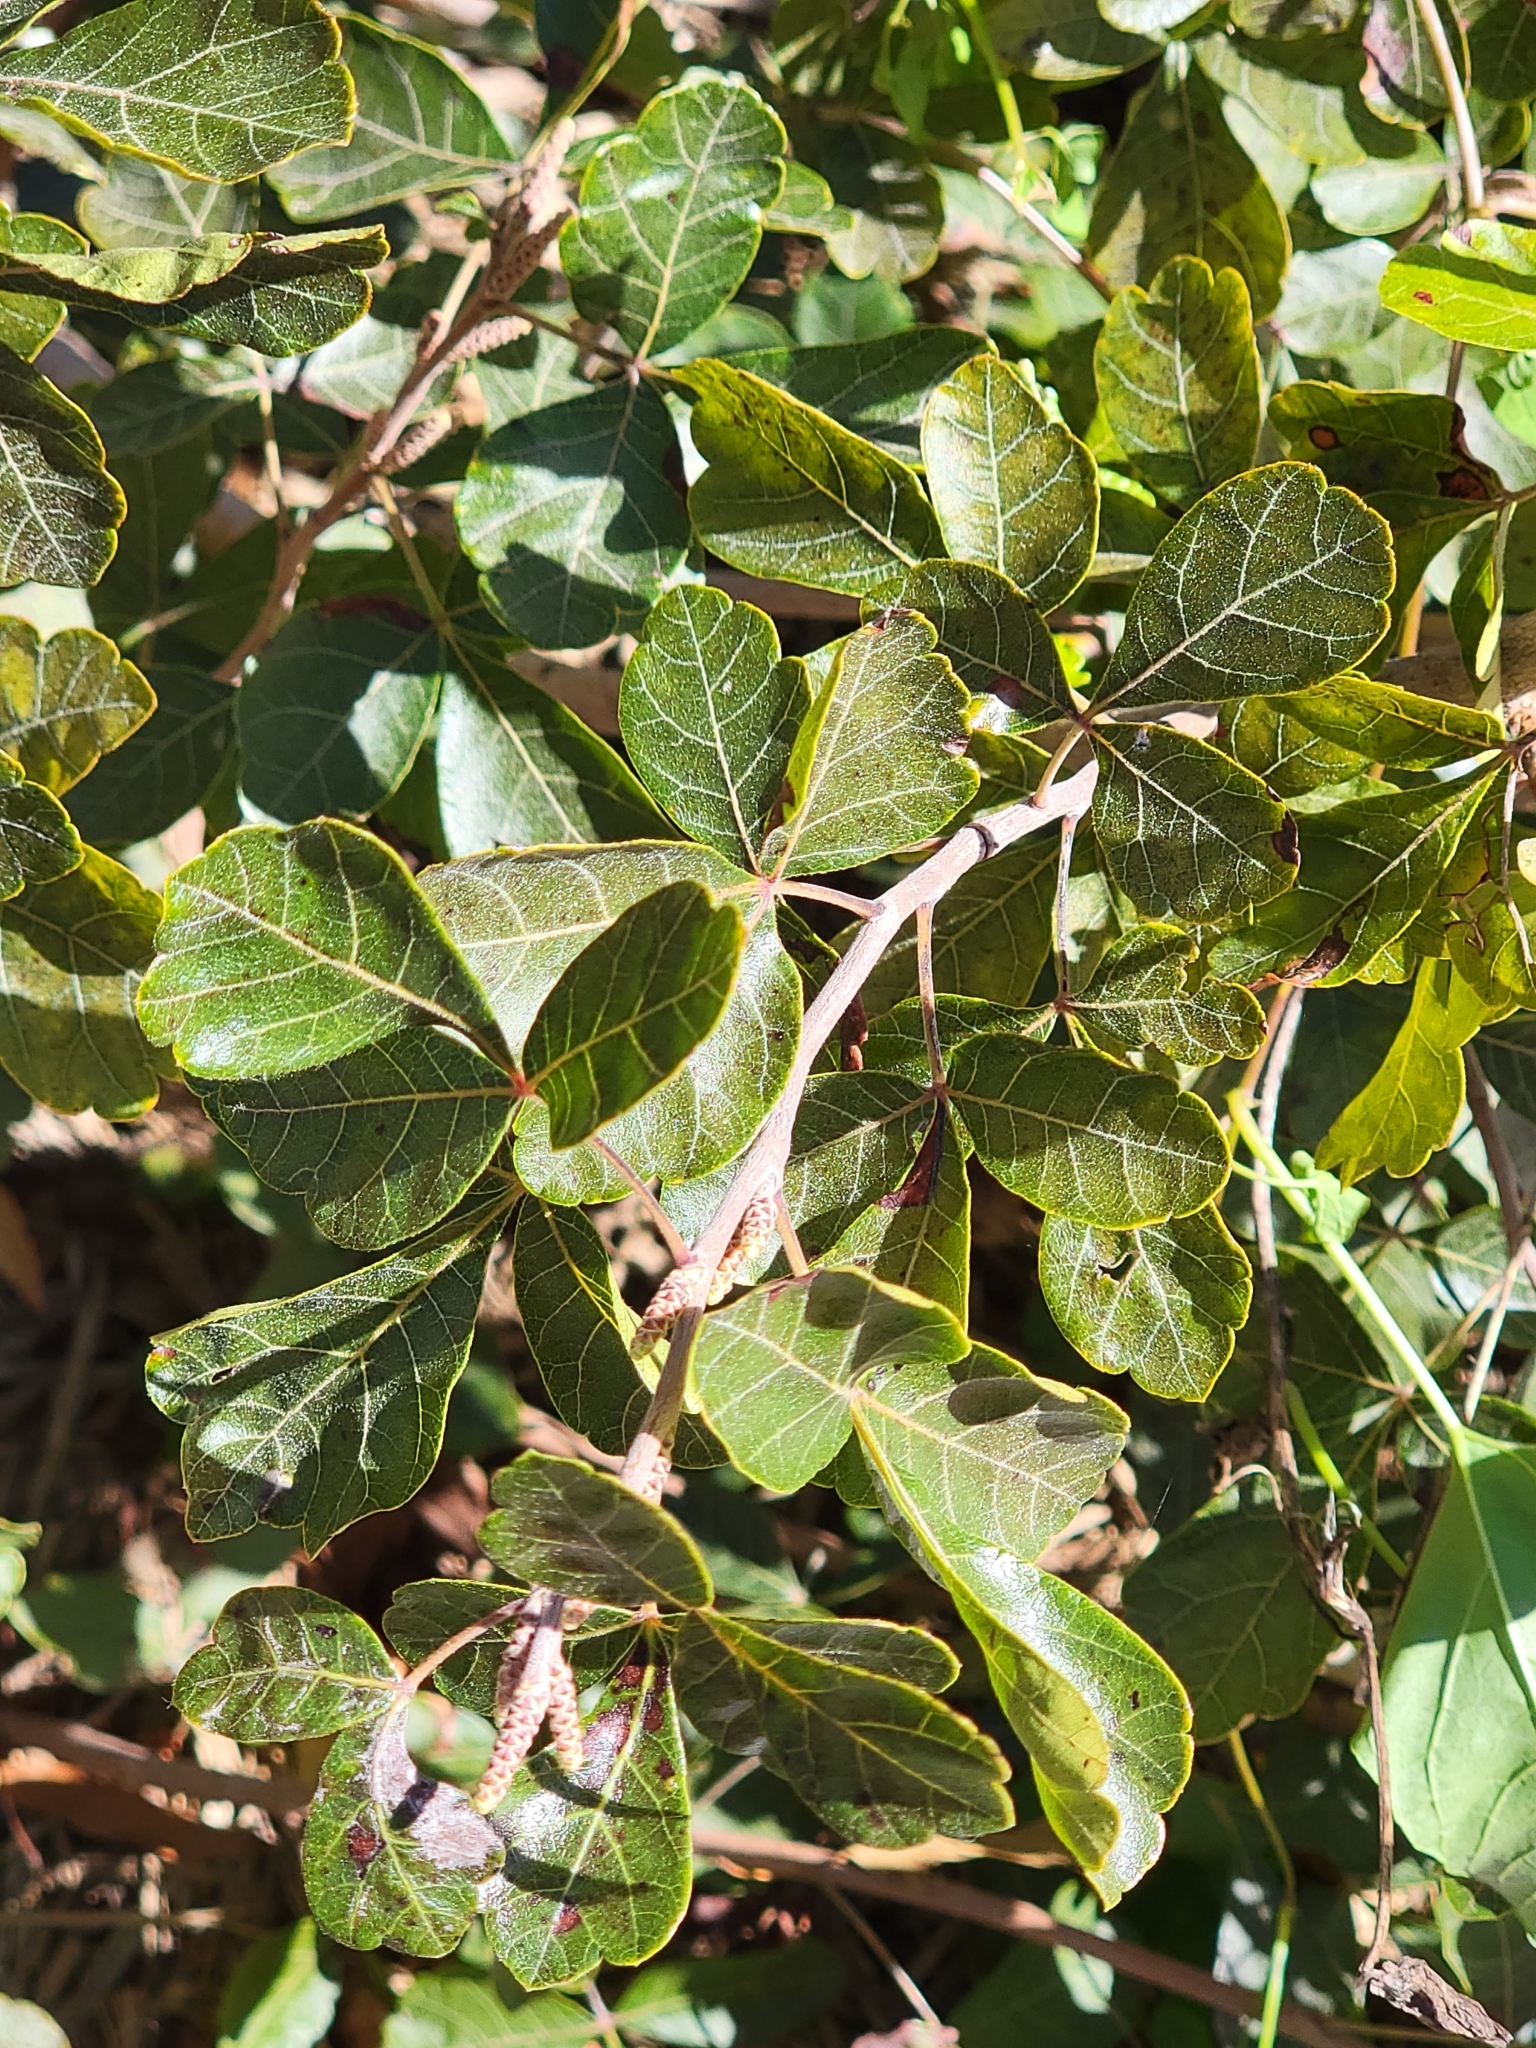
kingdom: Plantae
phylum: Tracheophyta
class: Magnoliopsida
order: Sapindales
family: Anacardiaceae
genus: Rhus
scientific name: Rhus aromatica
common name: Aromatic sumac
